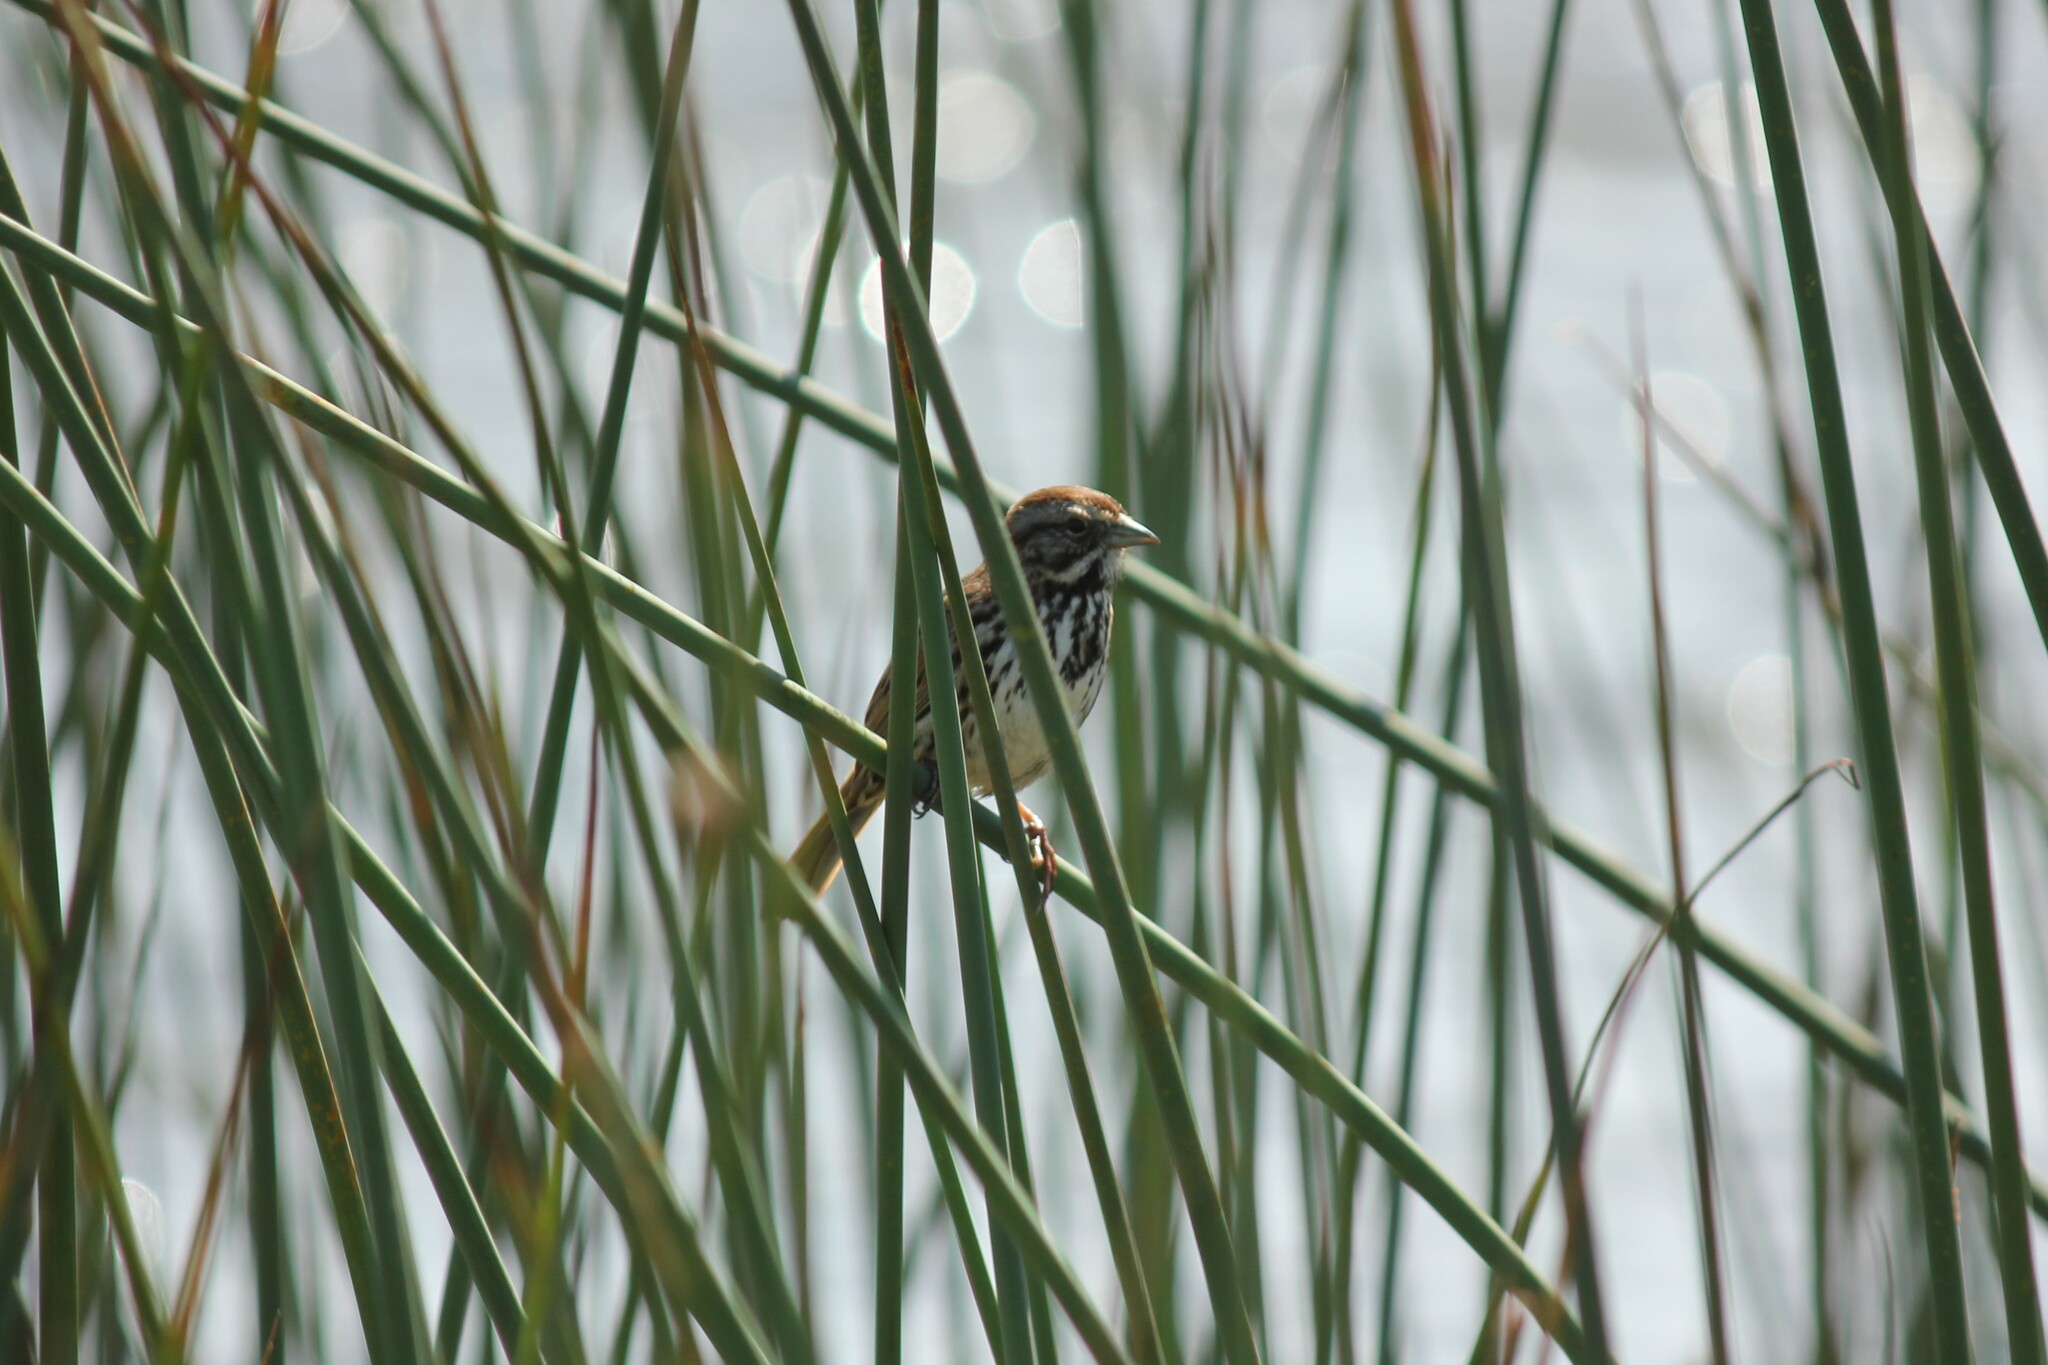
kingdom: Animalia
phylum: Chordata
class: Aves
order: Passeriformes
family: Passerellidae
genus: Melospiza
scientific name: Melospiza melodia
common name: Song sparrow
